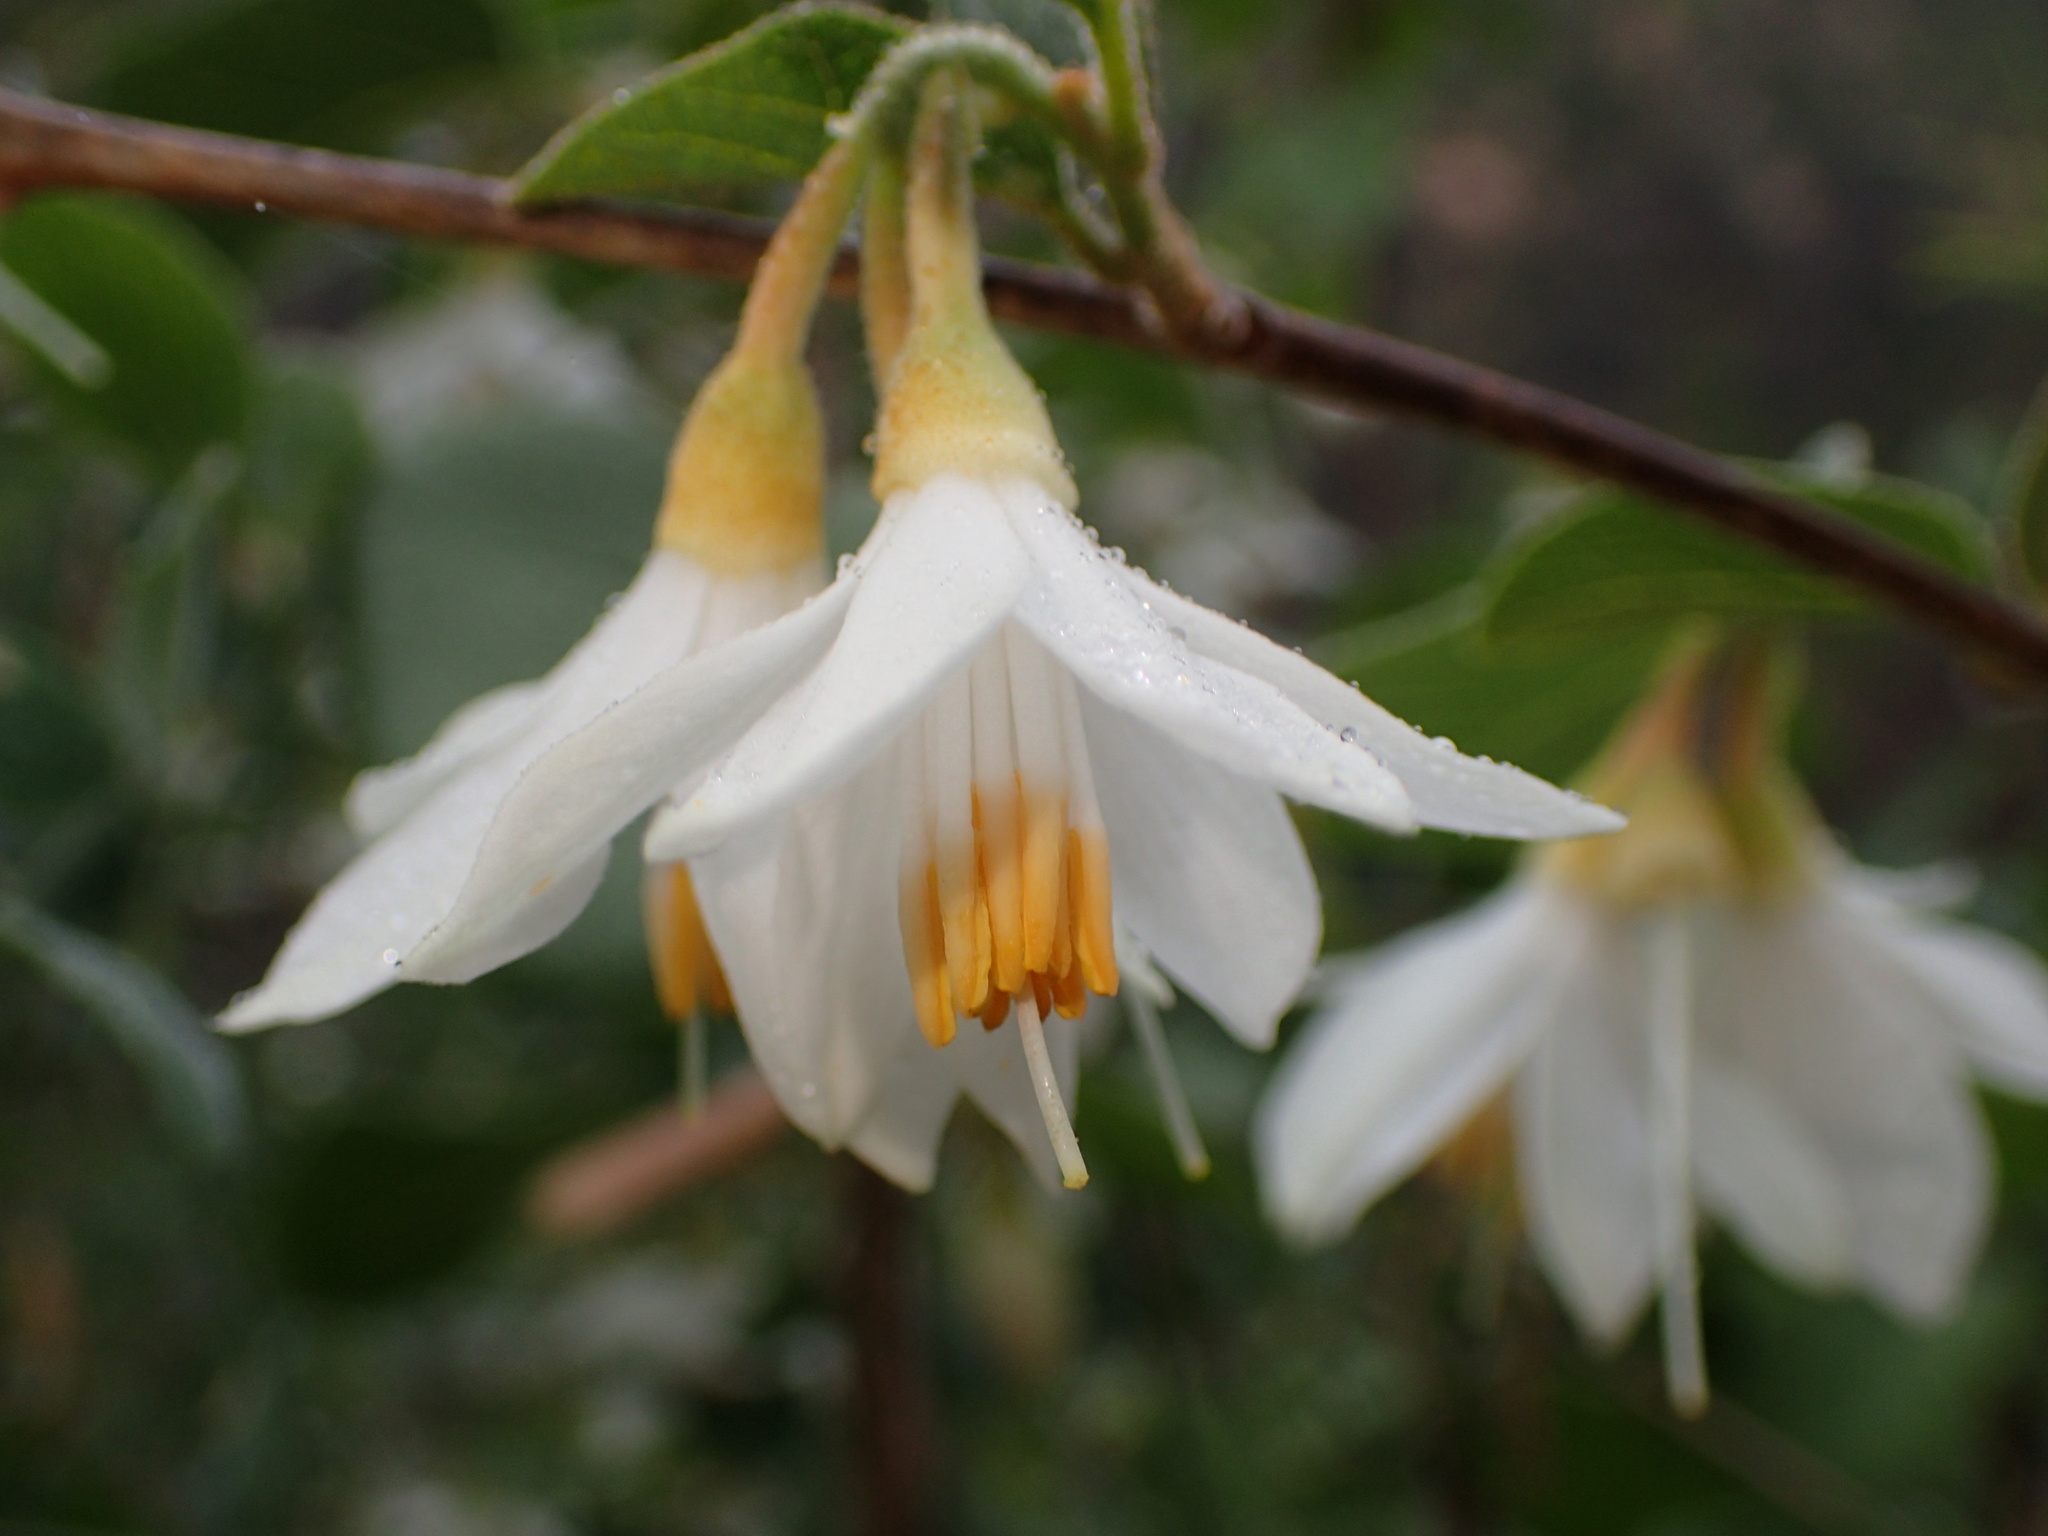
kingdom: Plantae
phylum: Tracheophyta
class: Magnoliopsida
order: Ericales
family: Styracaceae
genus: Styrax
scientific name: Styrax redivivus
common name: California styrax
